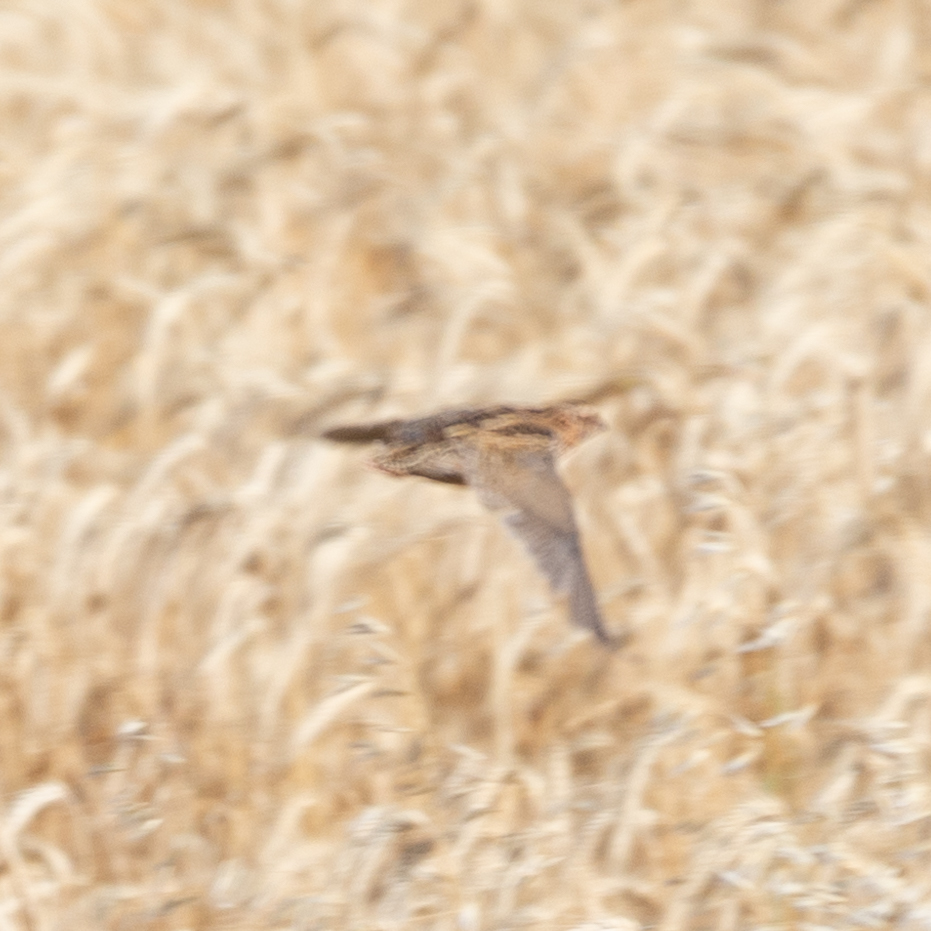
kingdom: Animalia
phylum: Chordata
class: Aves
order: Galliformes
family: Phasianidae
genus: Coturnix
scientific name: Coturnix coturnix
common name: Common quail
